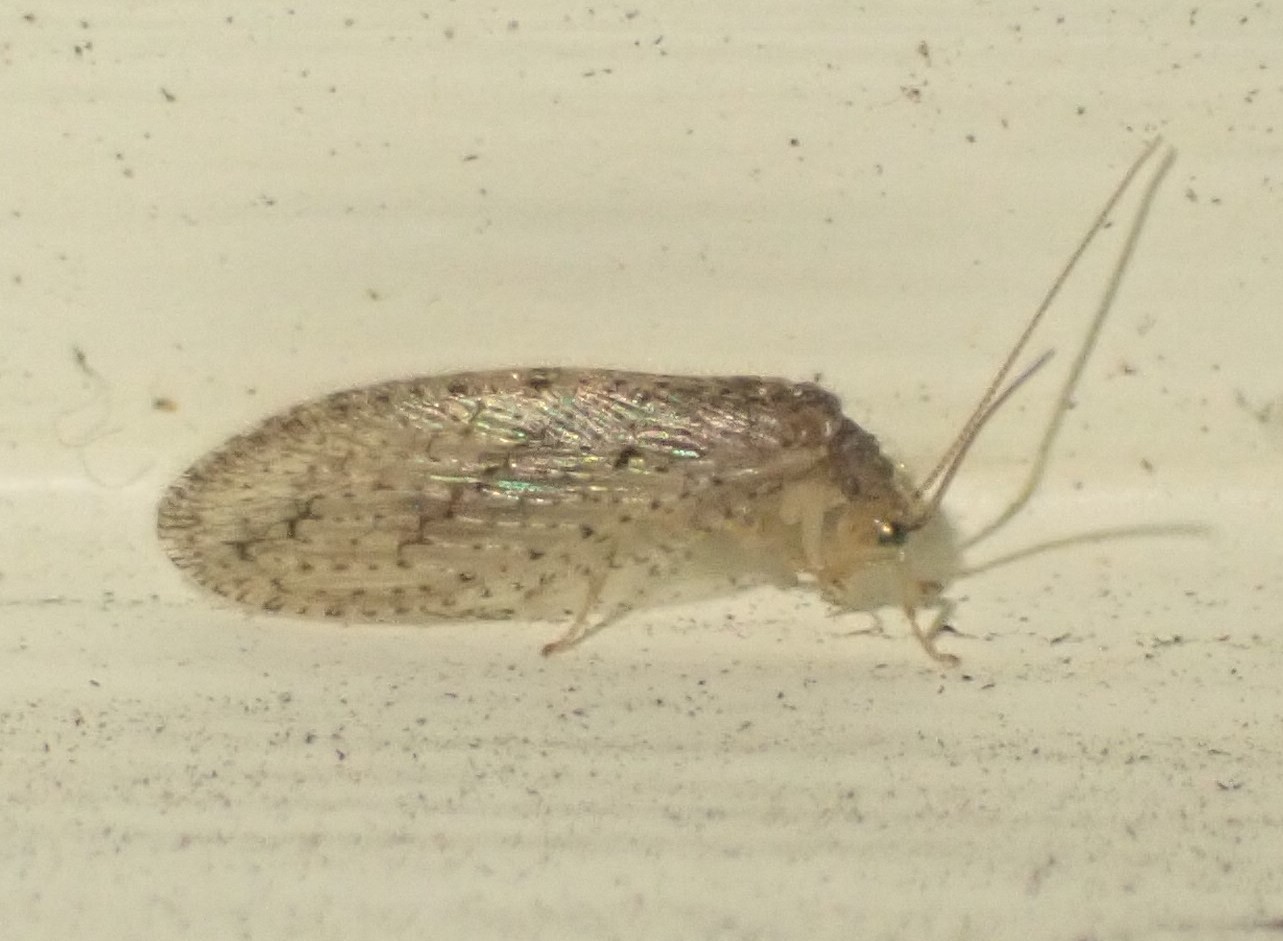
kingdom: Animalia
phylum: Arthropoda
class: Insecta
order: Neuroptera
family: Hemerobiidae
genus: Micromus
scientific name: Micromus tasmaniae
